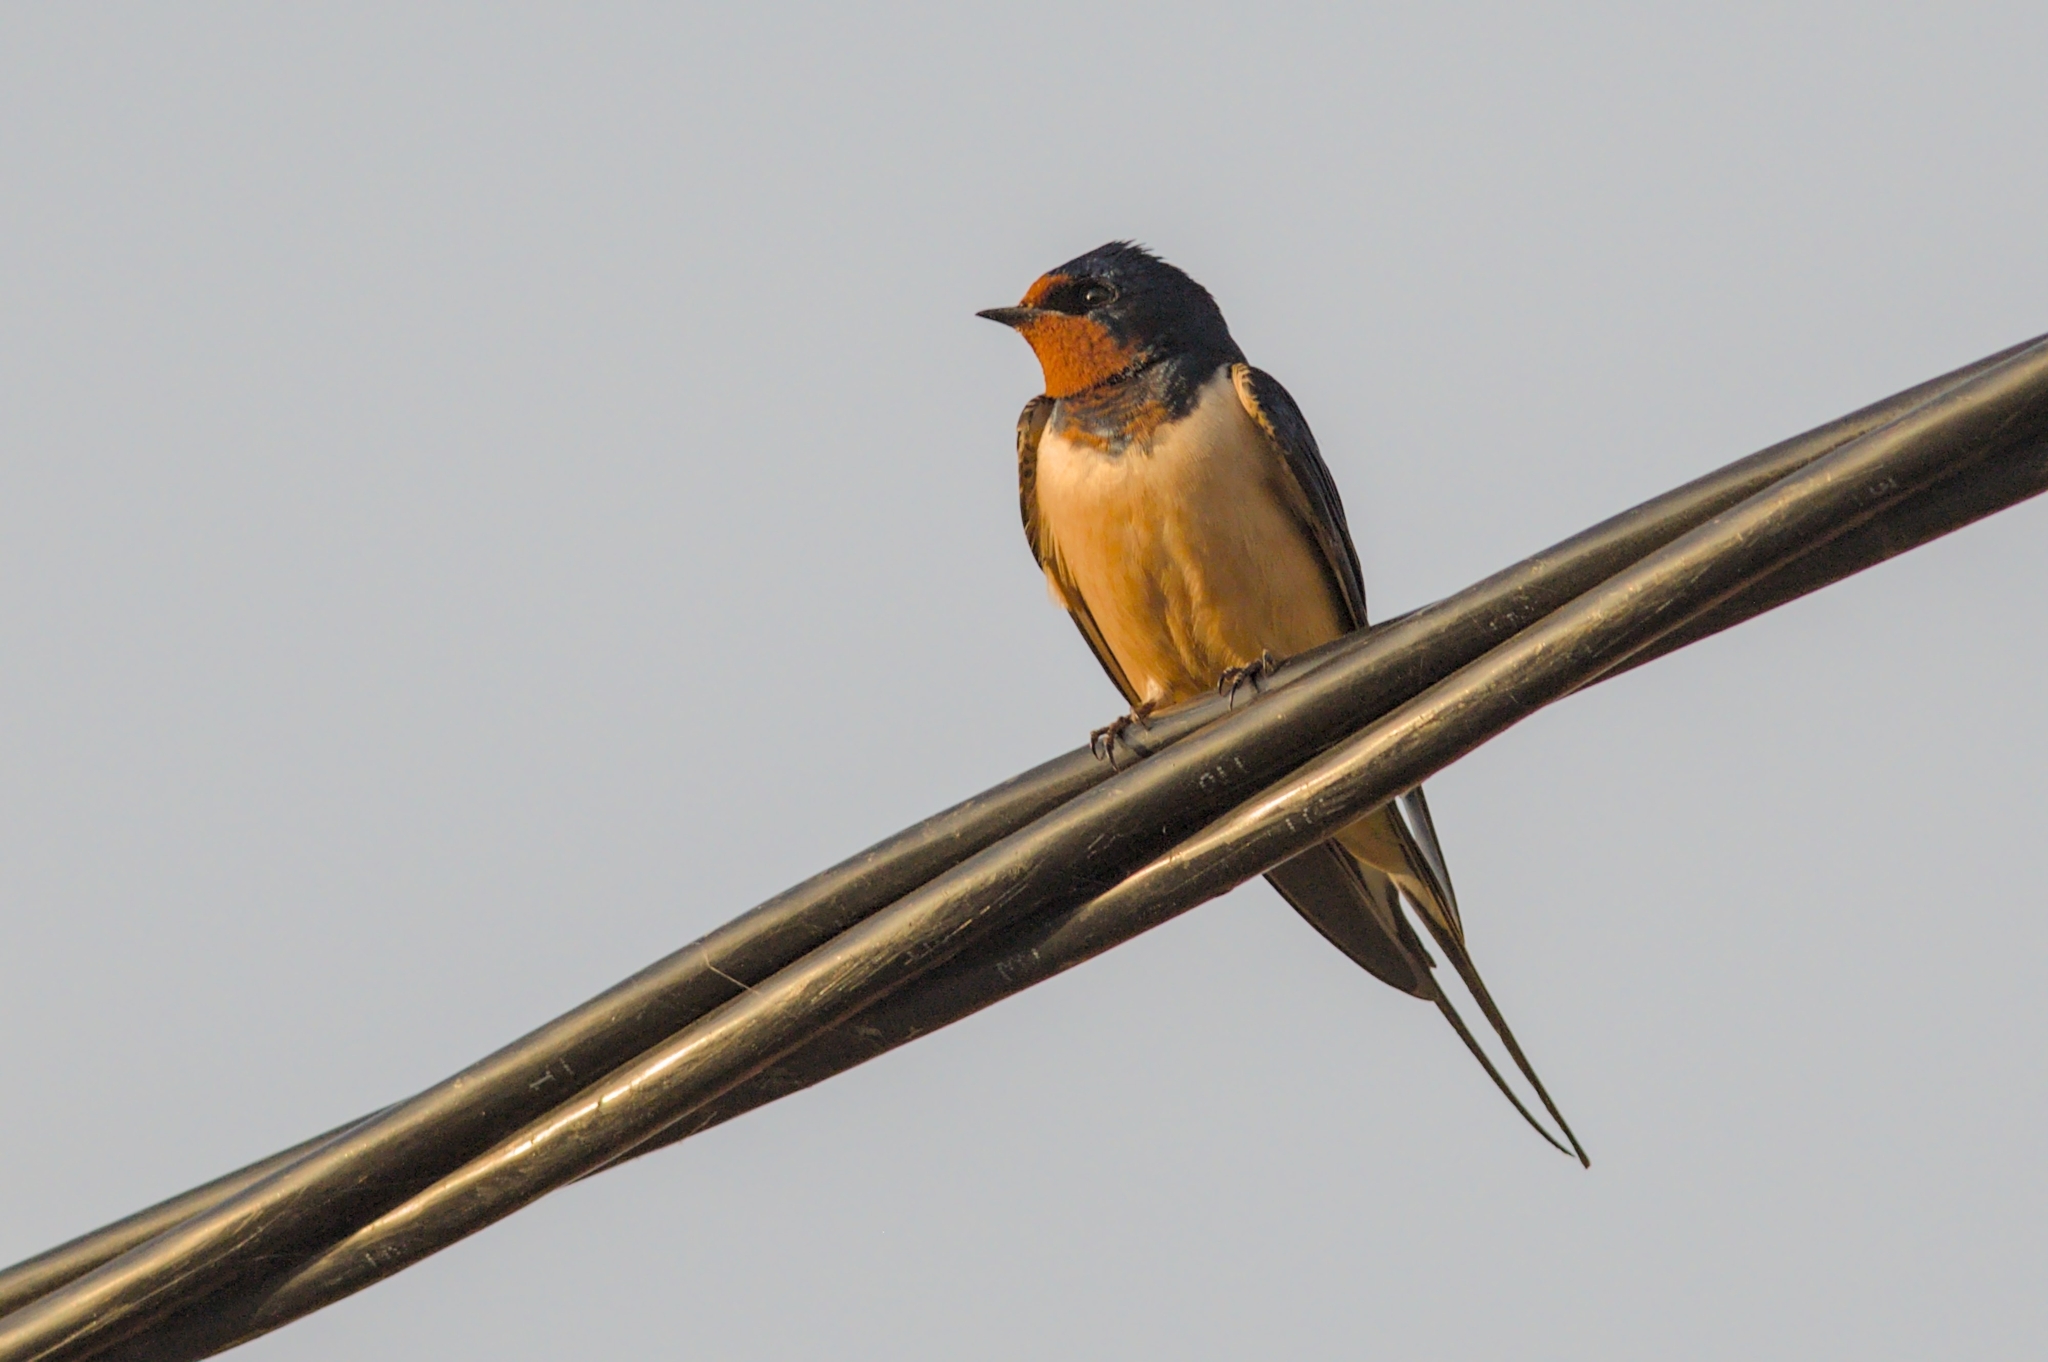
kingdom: Animalia
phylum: Chordata
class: Aves
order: Passeriformes
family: Hirundinidae
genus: Hirundo
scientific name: Hirundo rustica
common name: Barn swallow
